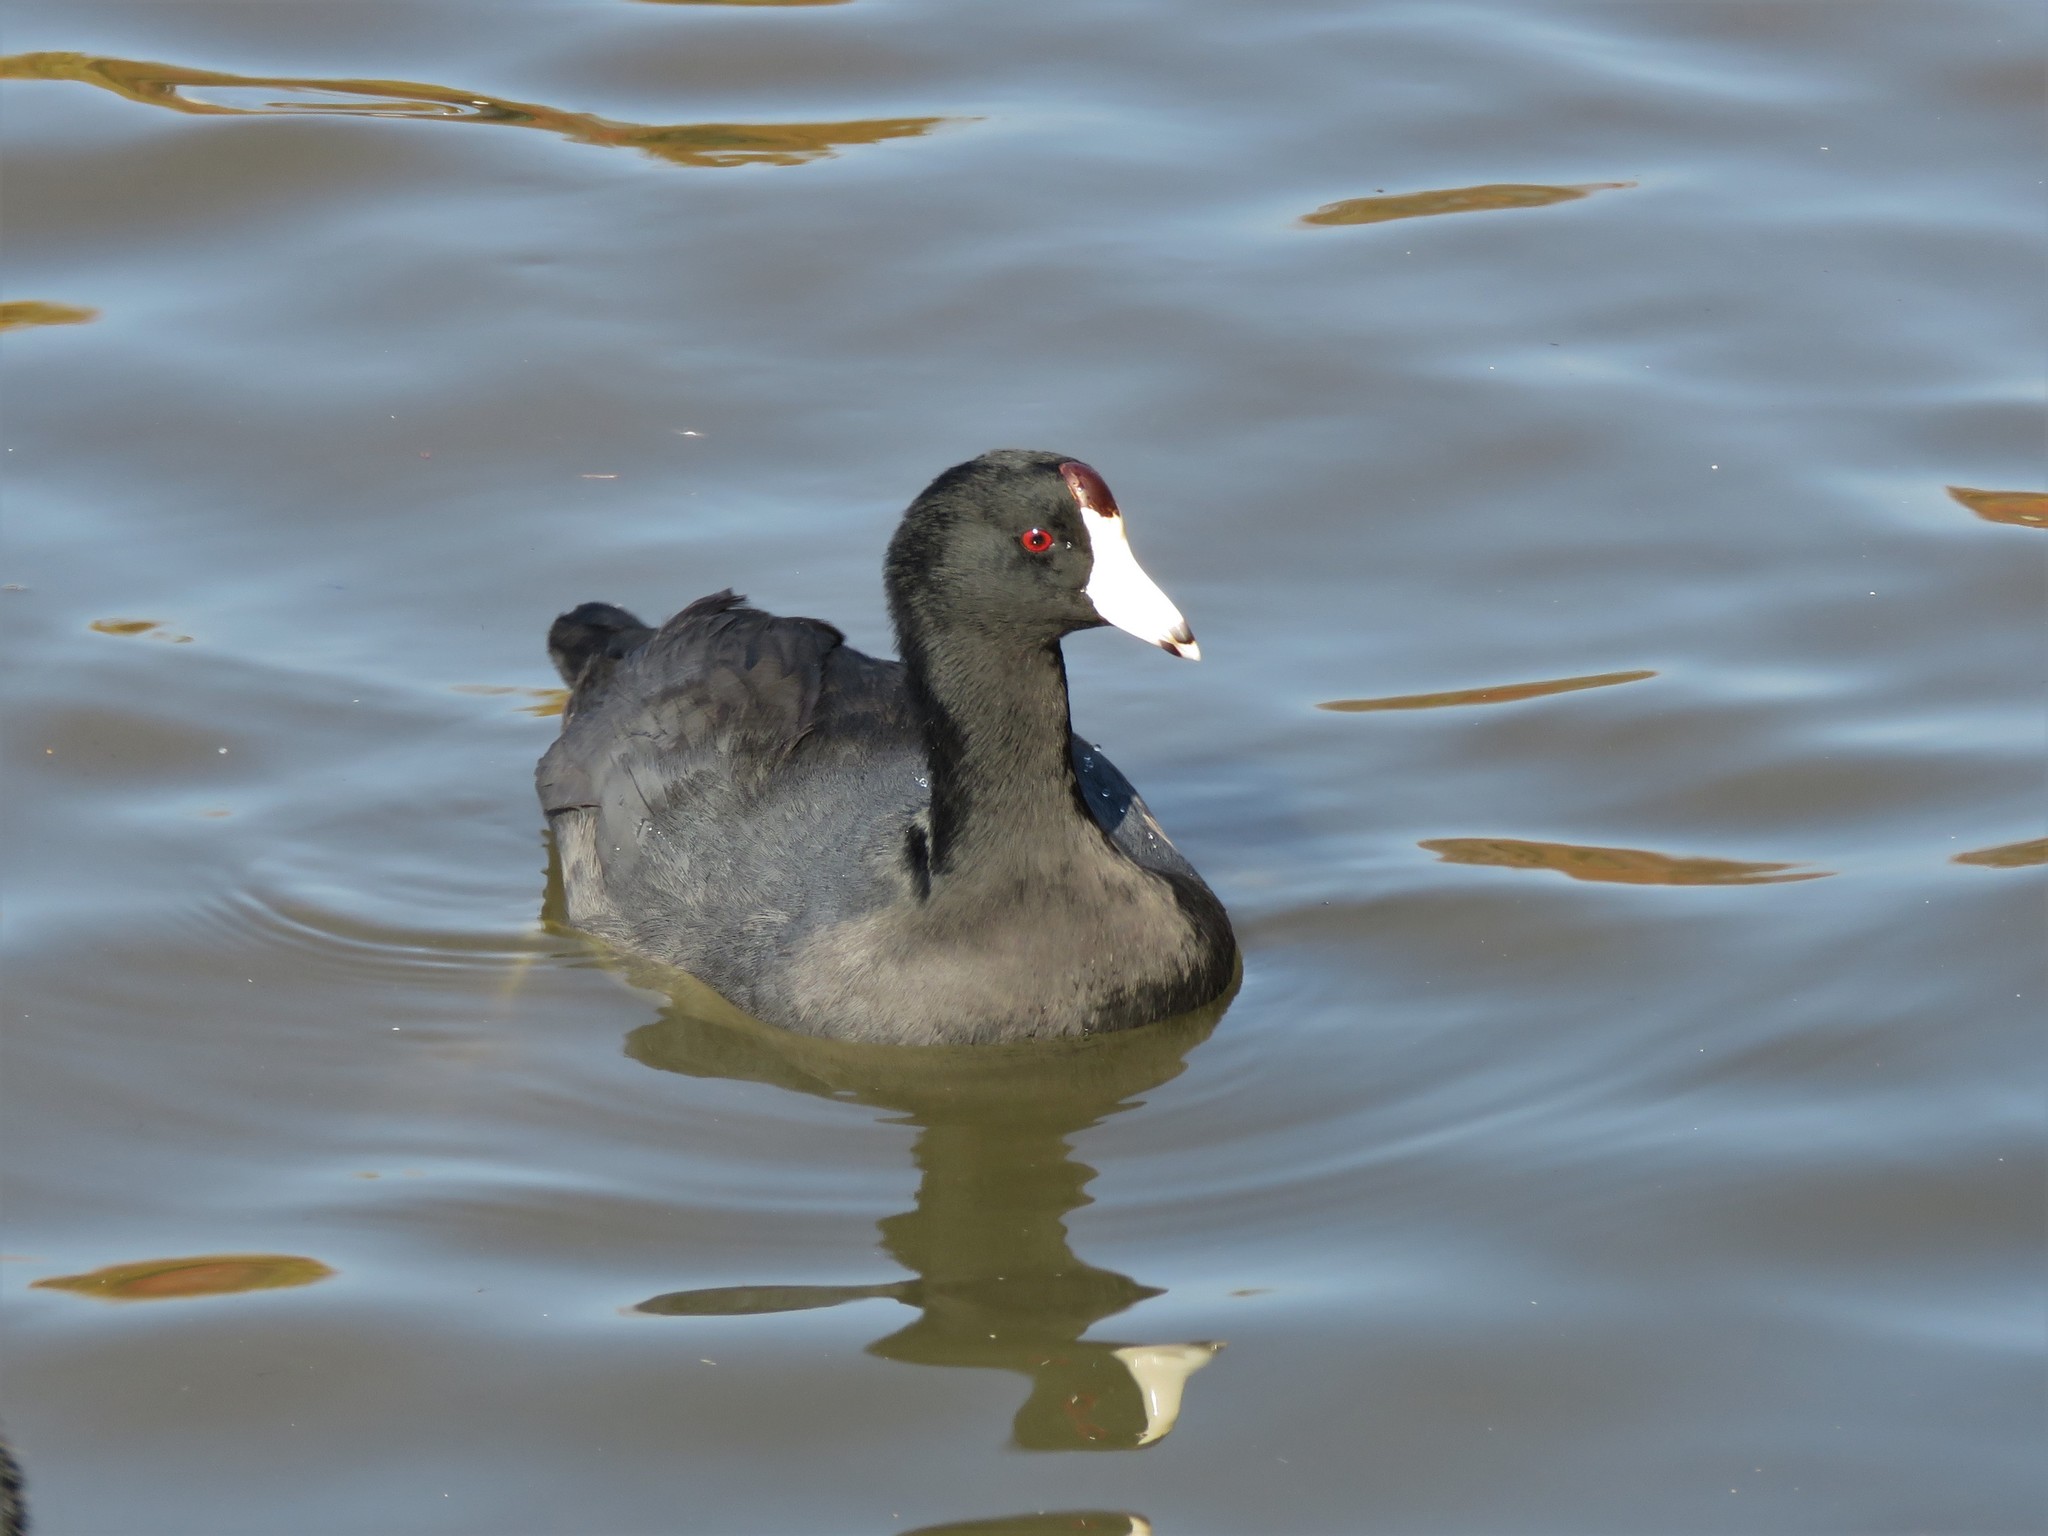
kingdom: Animalia
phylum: Chordata
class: Aves
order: Gruiformes
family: Rallidae
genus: Fulica
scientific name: Fulica americana
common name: American coot
